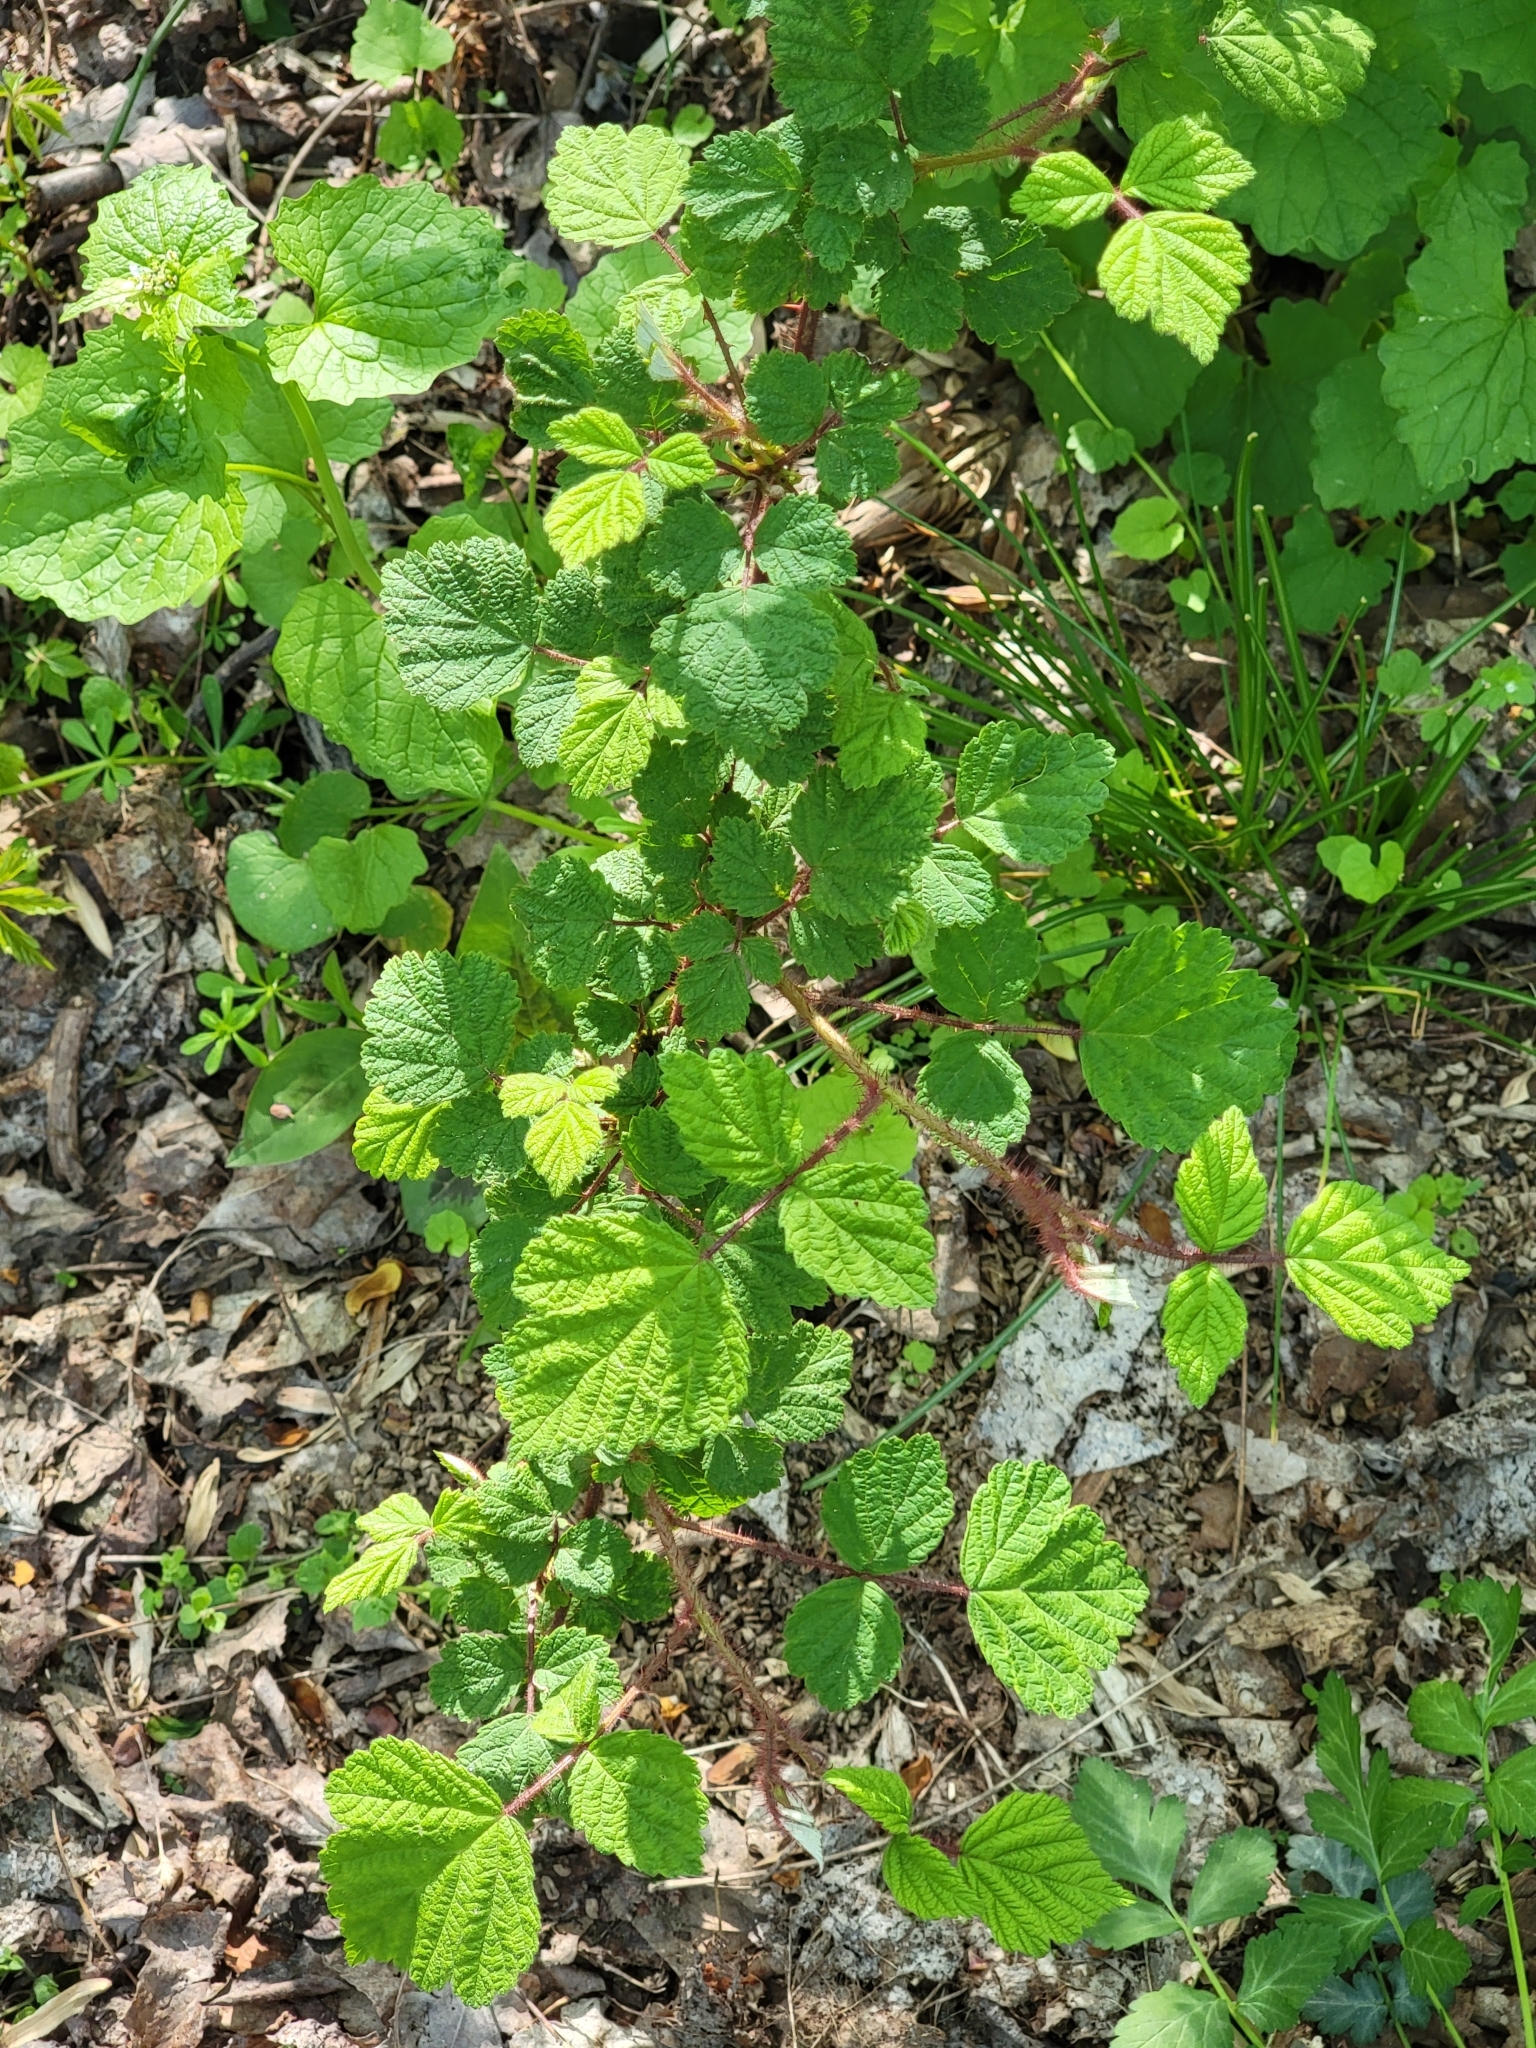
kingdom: Plantae
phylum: Tracheophyta
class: Magnoliopsida
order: Rosales
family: Rosaceae
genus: Rubus
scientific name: Rubus phoenicolasius
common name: Japanese wineberry
